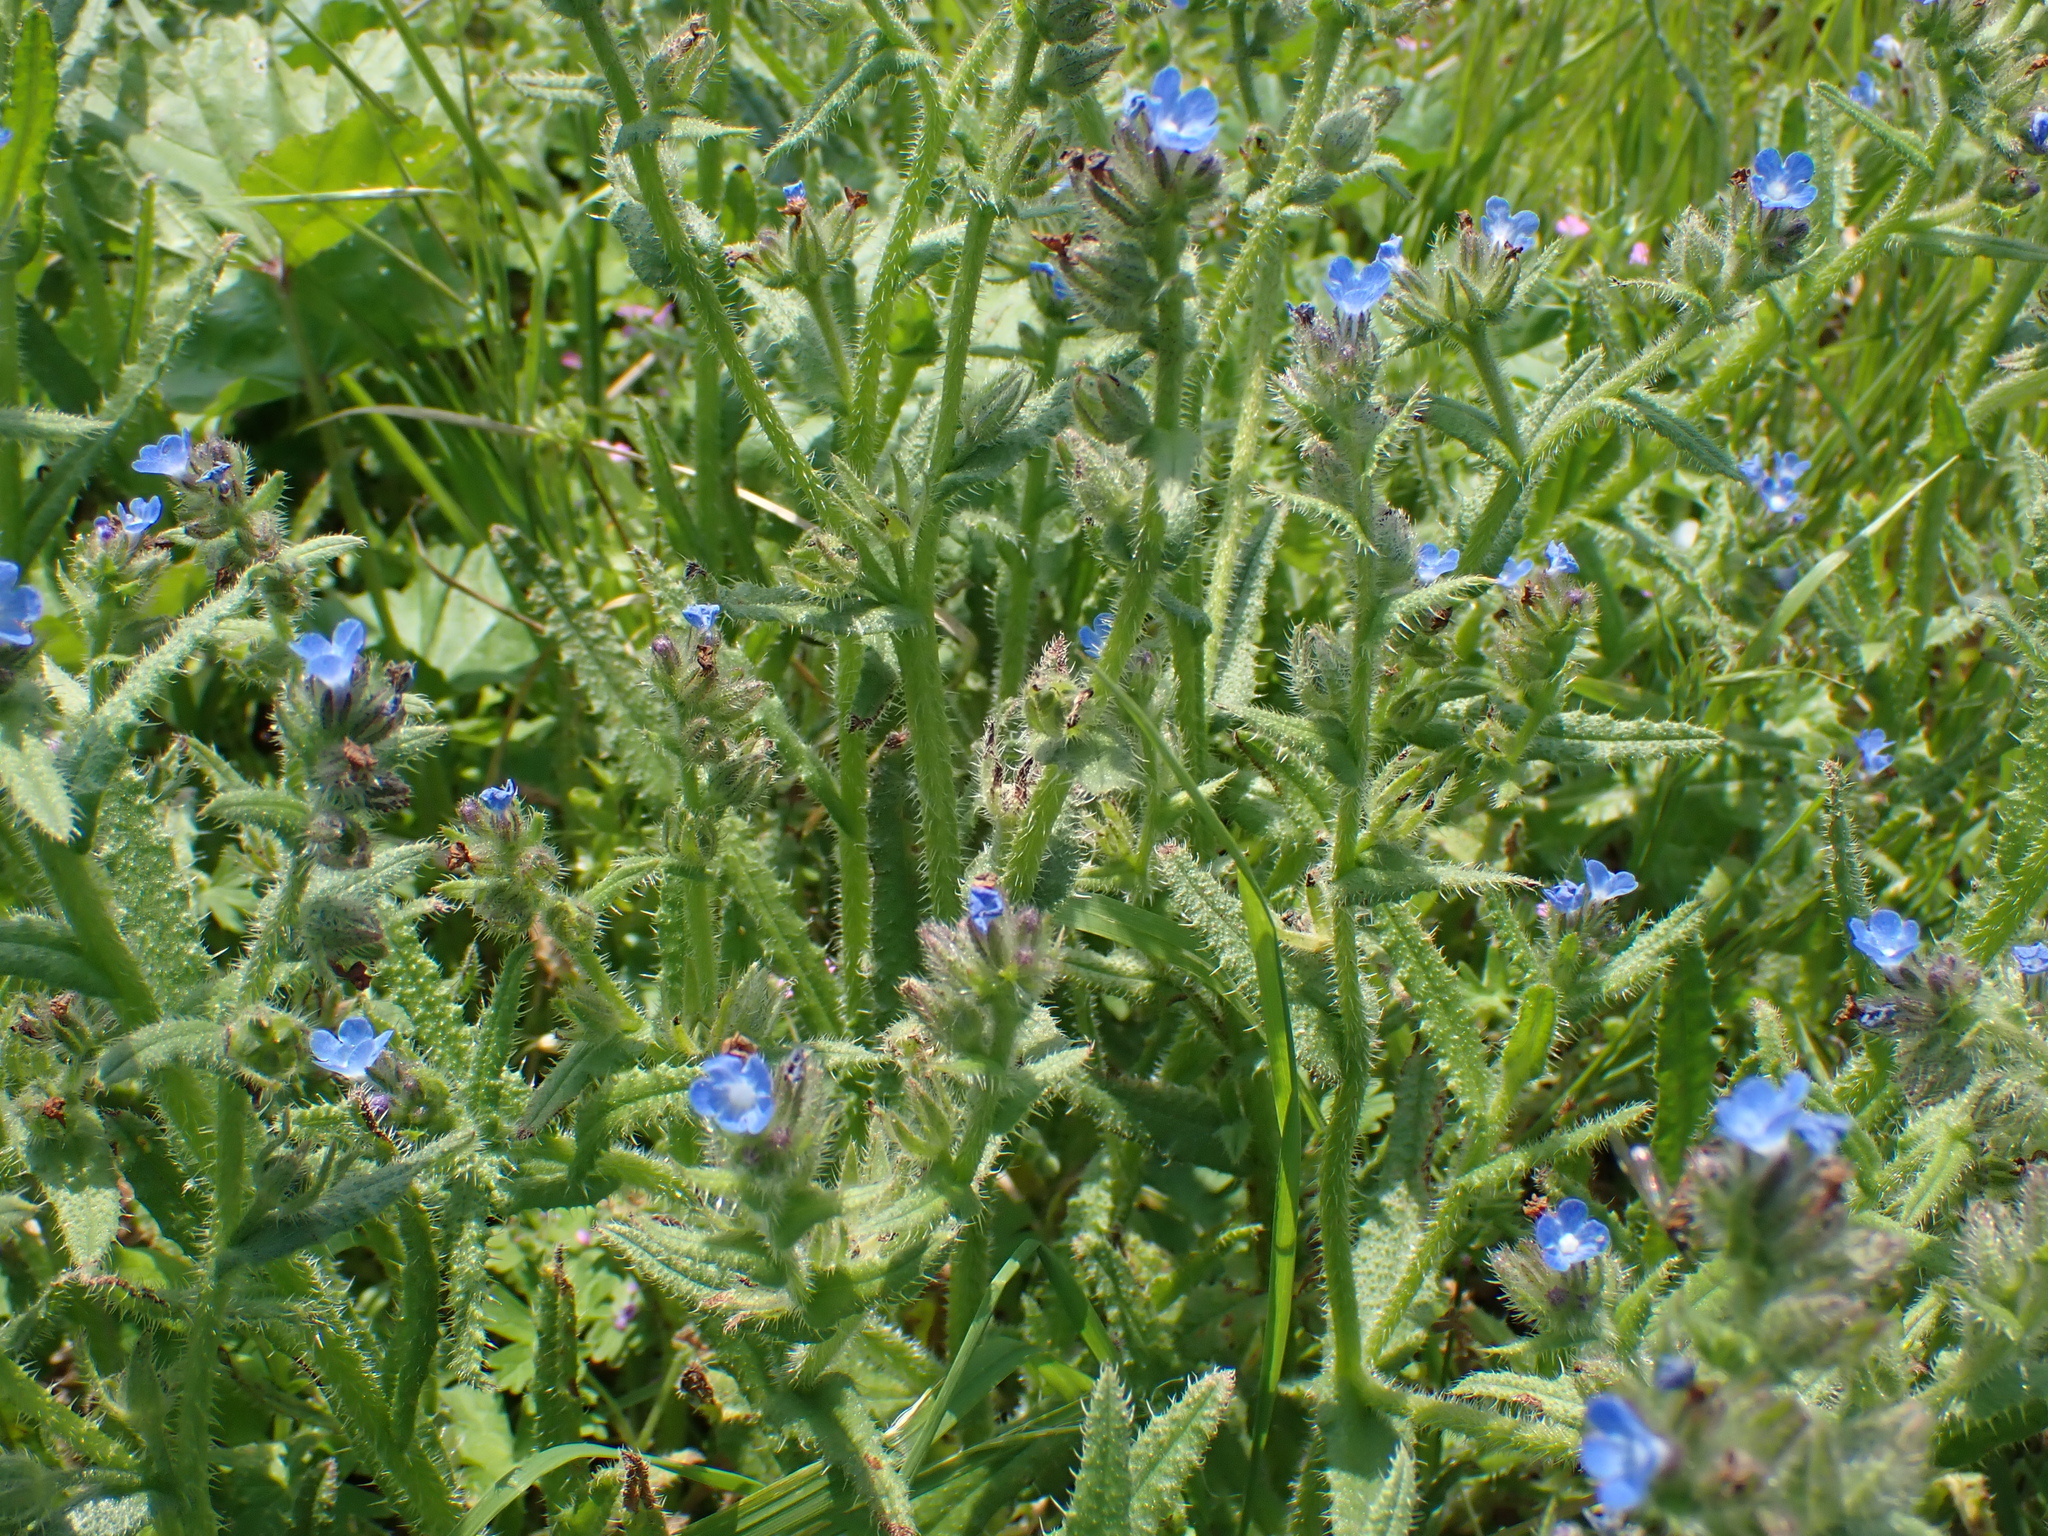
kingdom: Plantae
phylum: Tracheophyta
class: Magnoliopsida
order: Boraginales
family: Boraginaceae
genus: Lycopsis
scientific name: Lycopsis arvensis
